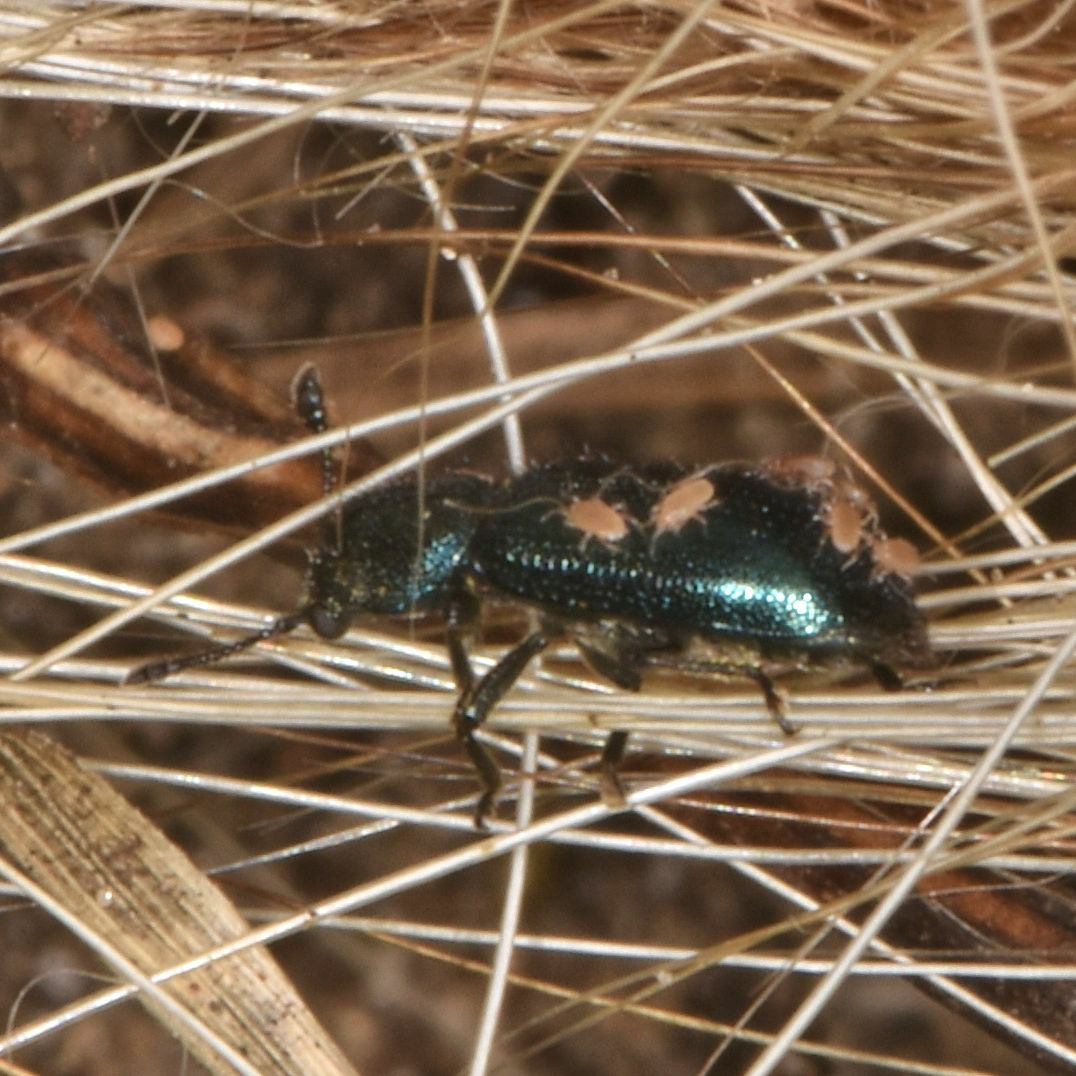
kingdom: Animalia
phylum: Arthropoda
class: Insecta
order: Coleoptera
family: Cleridae
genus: Necrobia
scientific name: Necrobia violacea
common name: Violet checkered beetle
